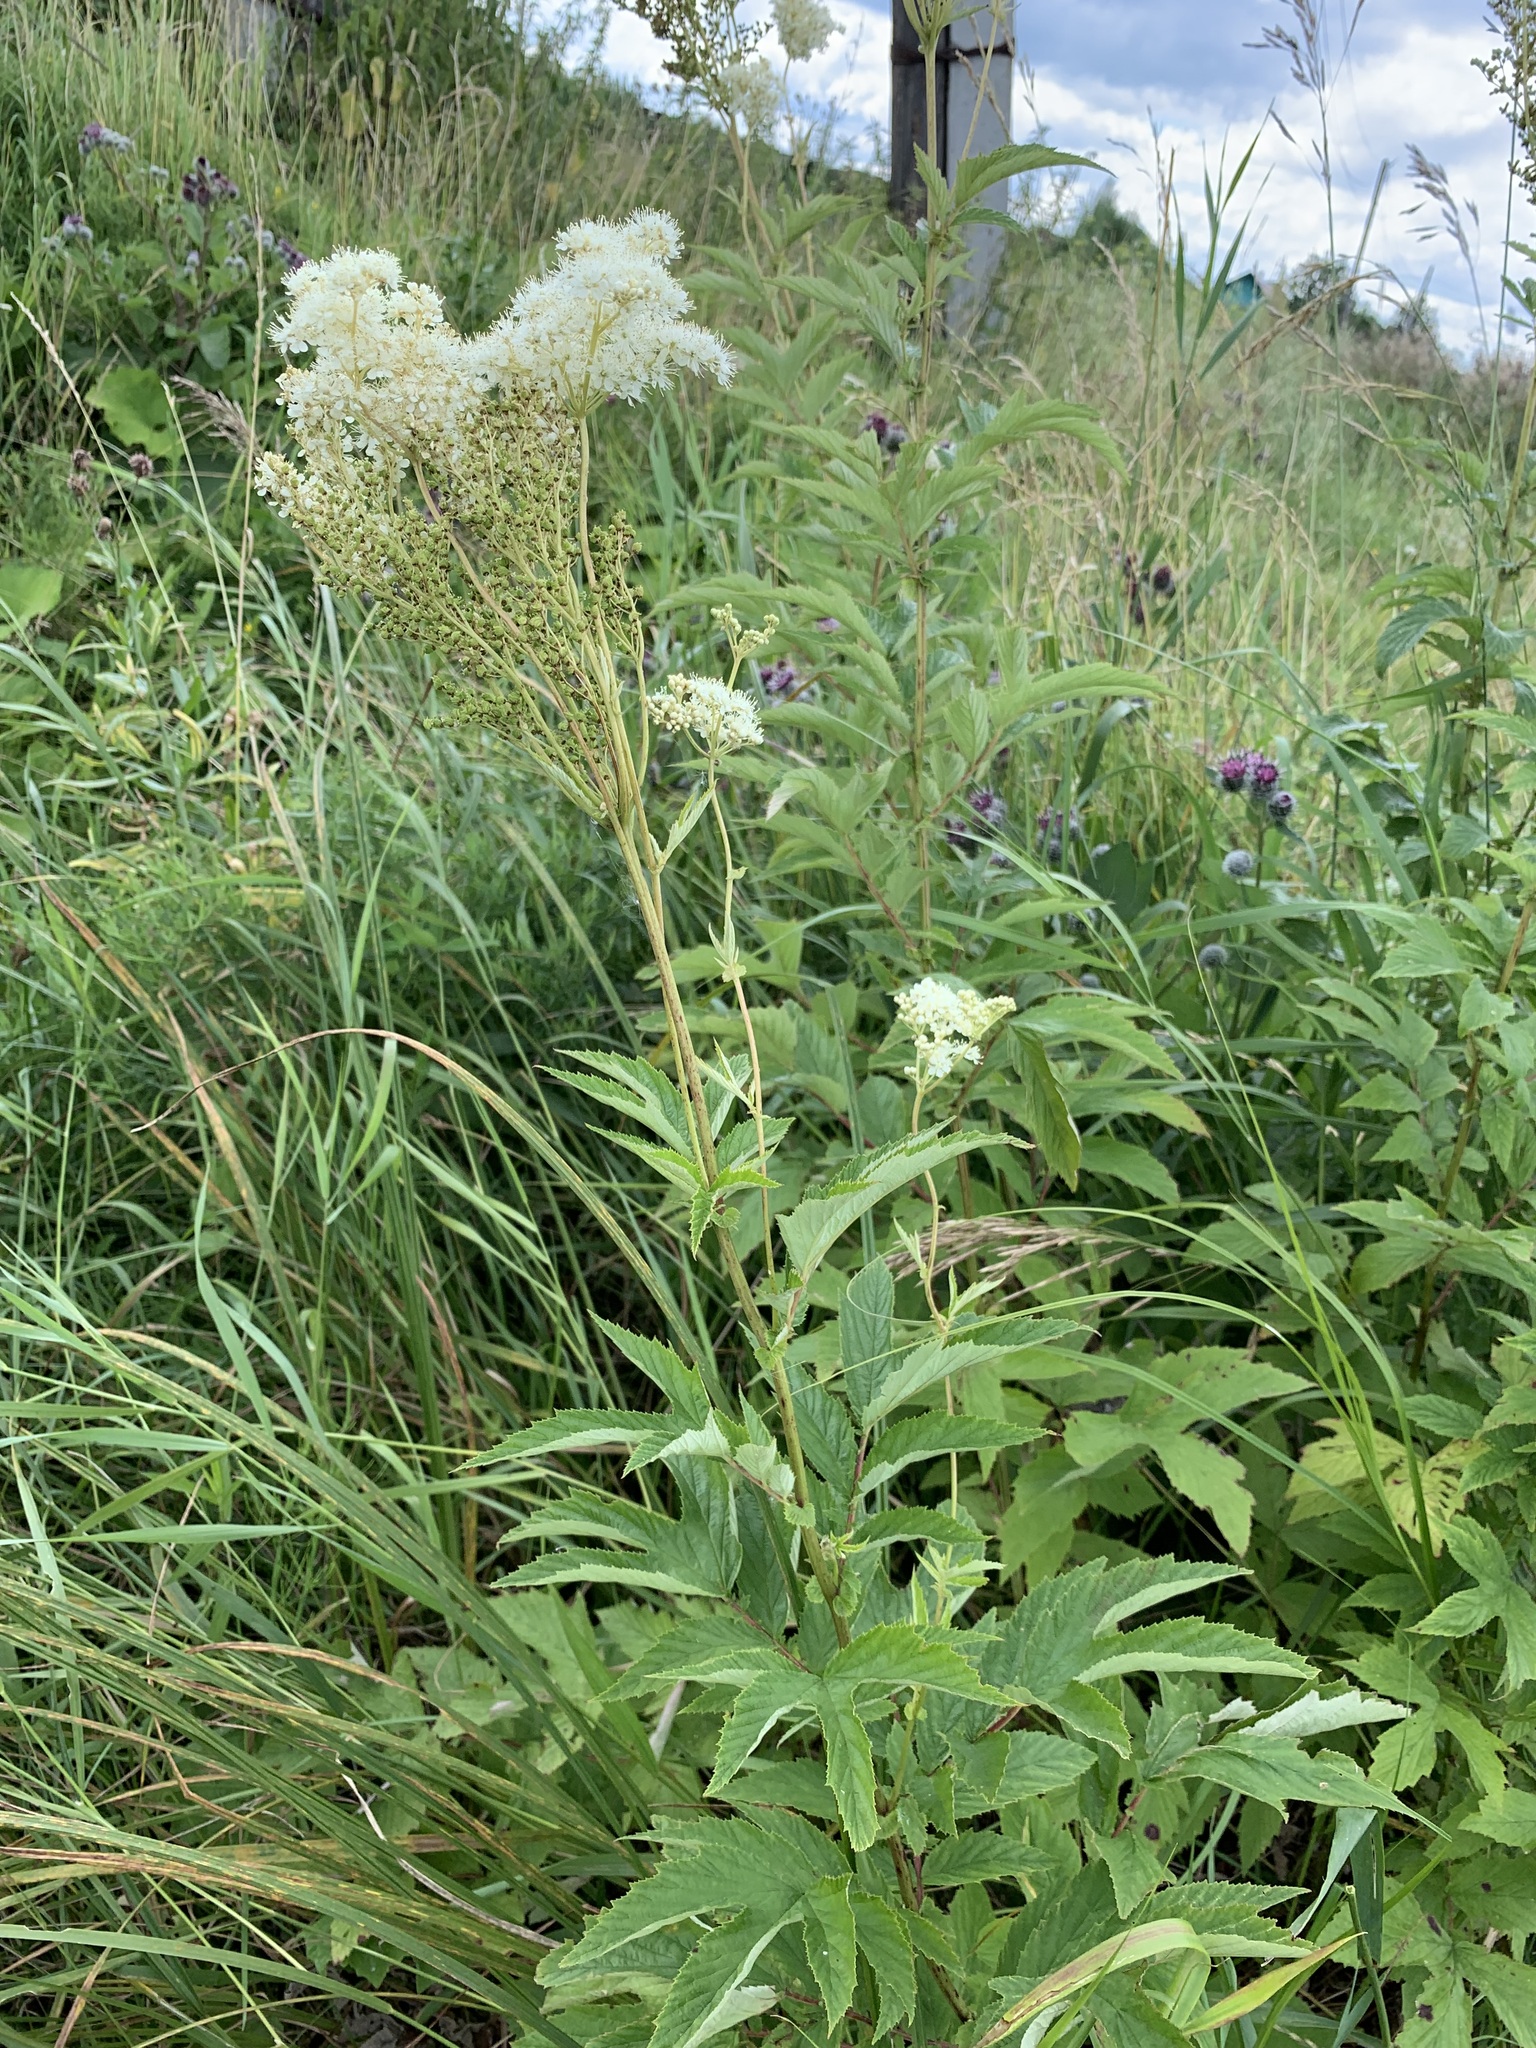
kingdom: Plantae
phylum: Tracheophyta
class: Magnoliopsida
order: Rosales
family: Rosaceae
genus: Filipendula
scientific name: Filipendula ulmaria
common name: Meadowsweet
